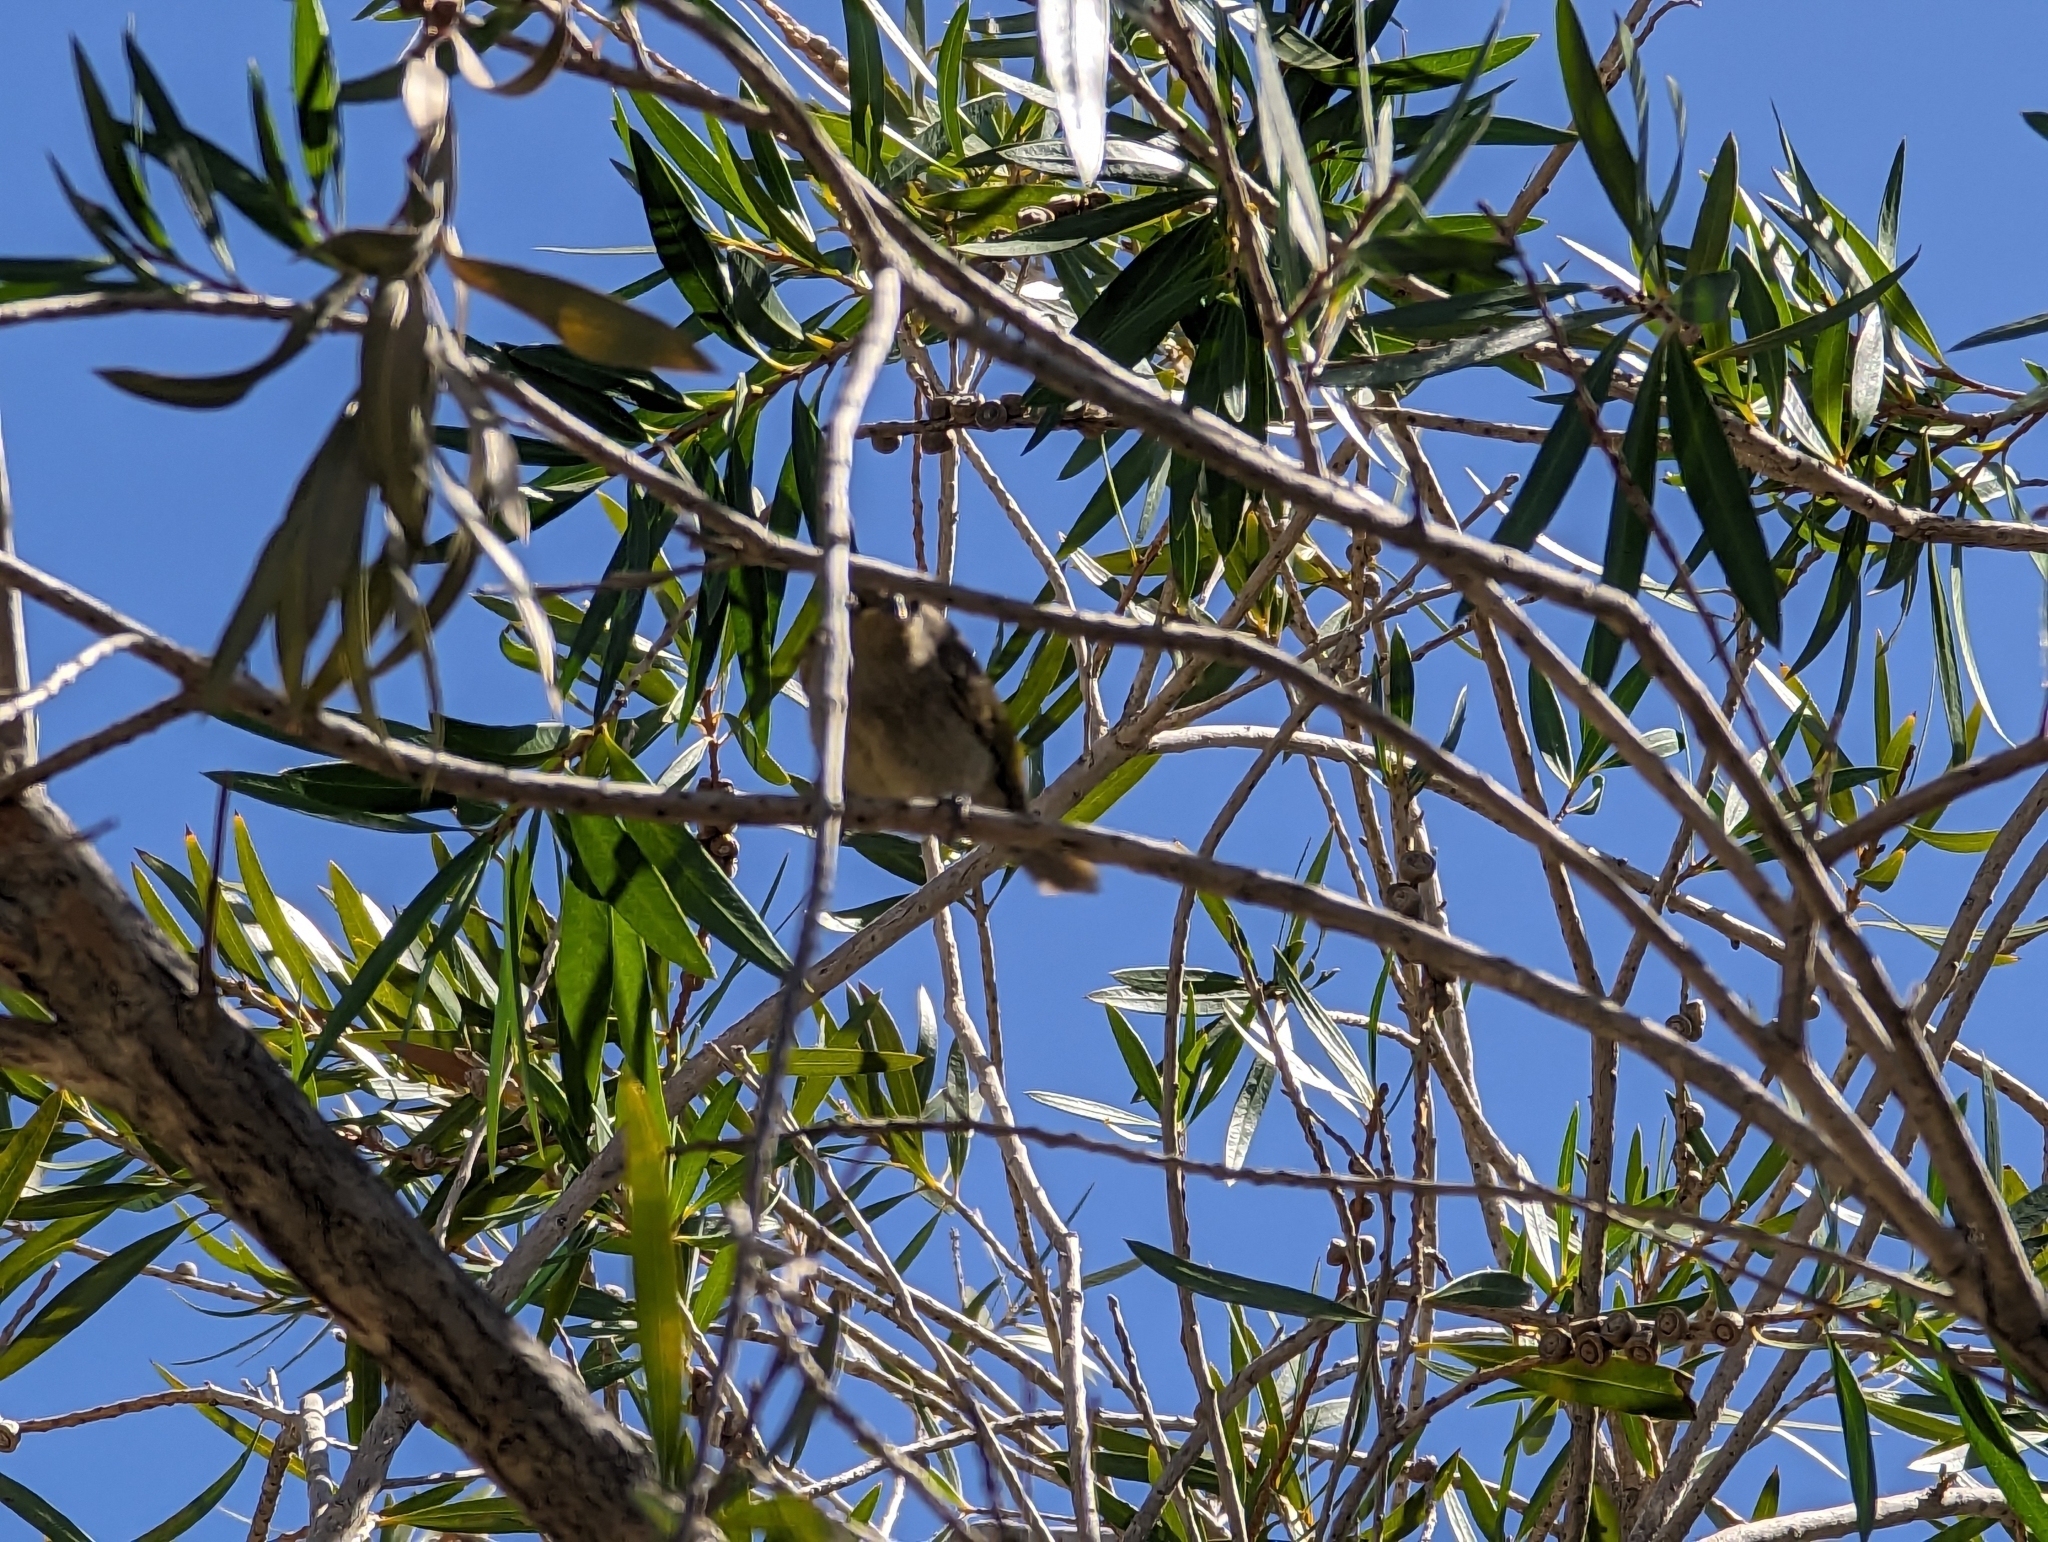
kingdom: Animalia
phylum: Chordata
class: Aves
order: Passeriformes
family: Meliphagidae
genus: Lichmera
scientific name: Lichmera indistincta
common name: Brown honeyeater
